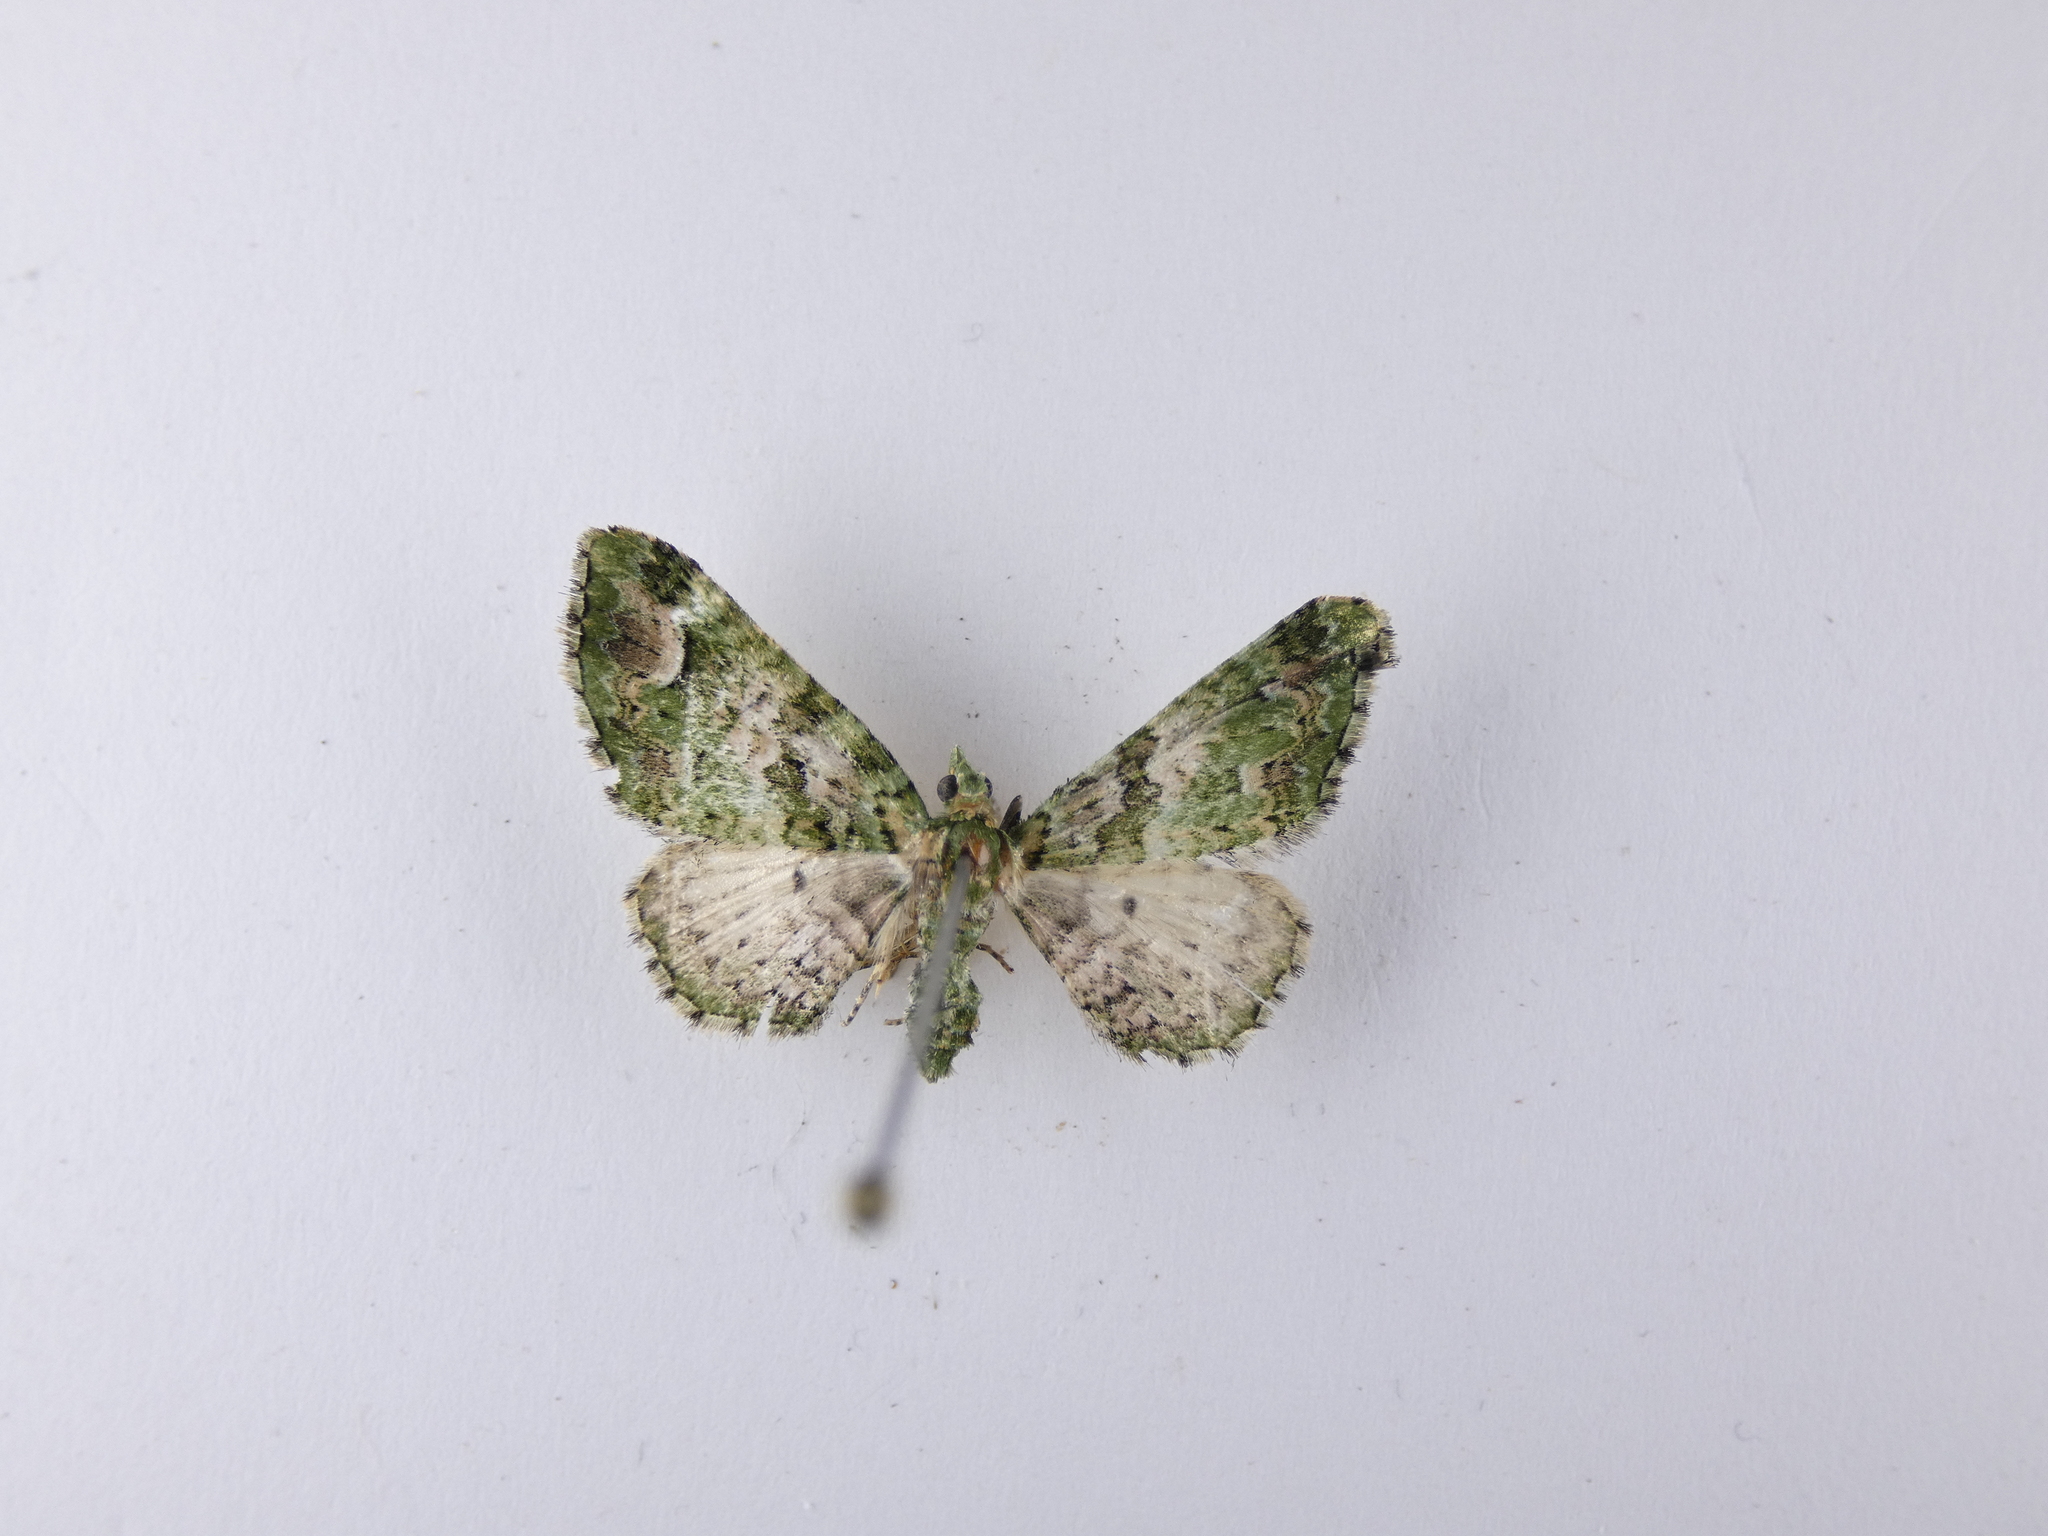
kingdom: Animalia
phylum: Arthropoda
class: Insecta
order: Lepidoptera
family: Geometridae
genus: Pasiphila
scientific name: Pasiphila semochlora
